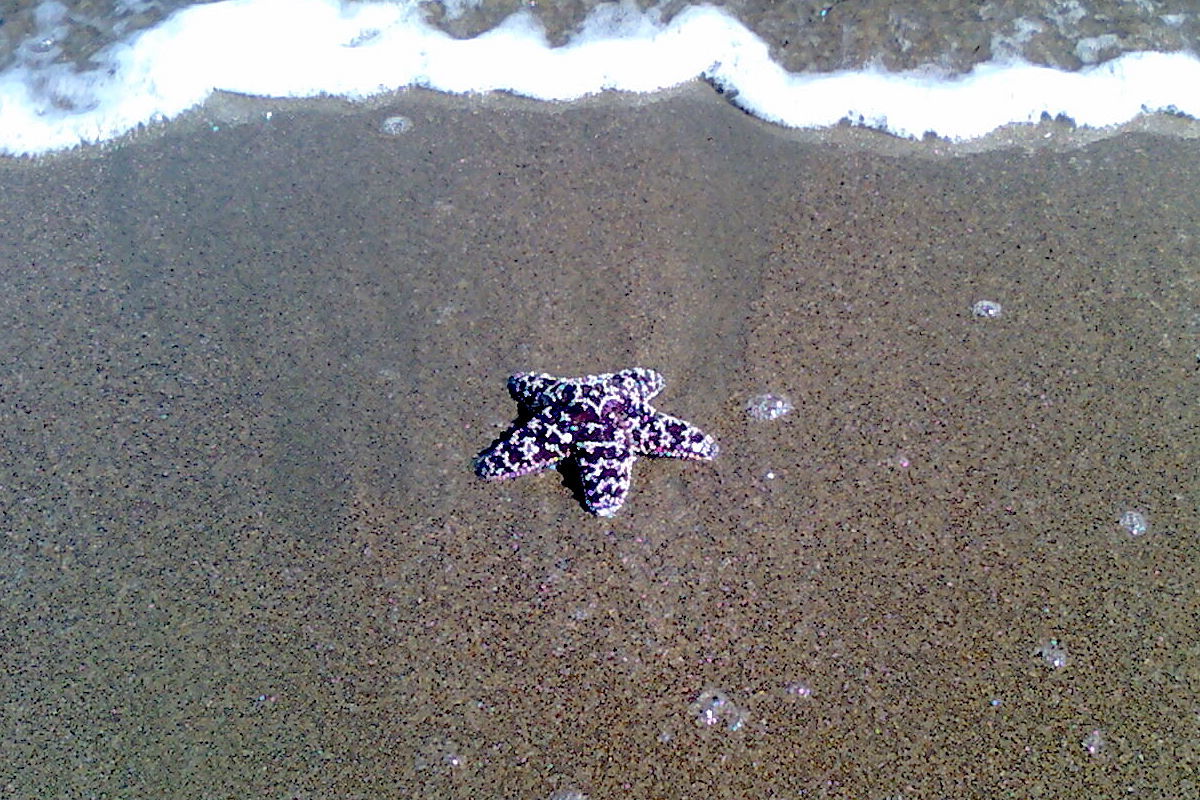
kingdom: Animalia
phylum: Echinodermata
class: Asteroidea
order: Forcipulatida
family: Asteriidae
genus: Pisaster
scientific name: Pisaster ochraceus
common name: Ochre stars
